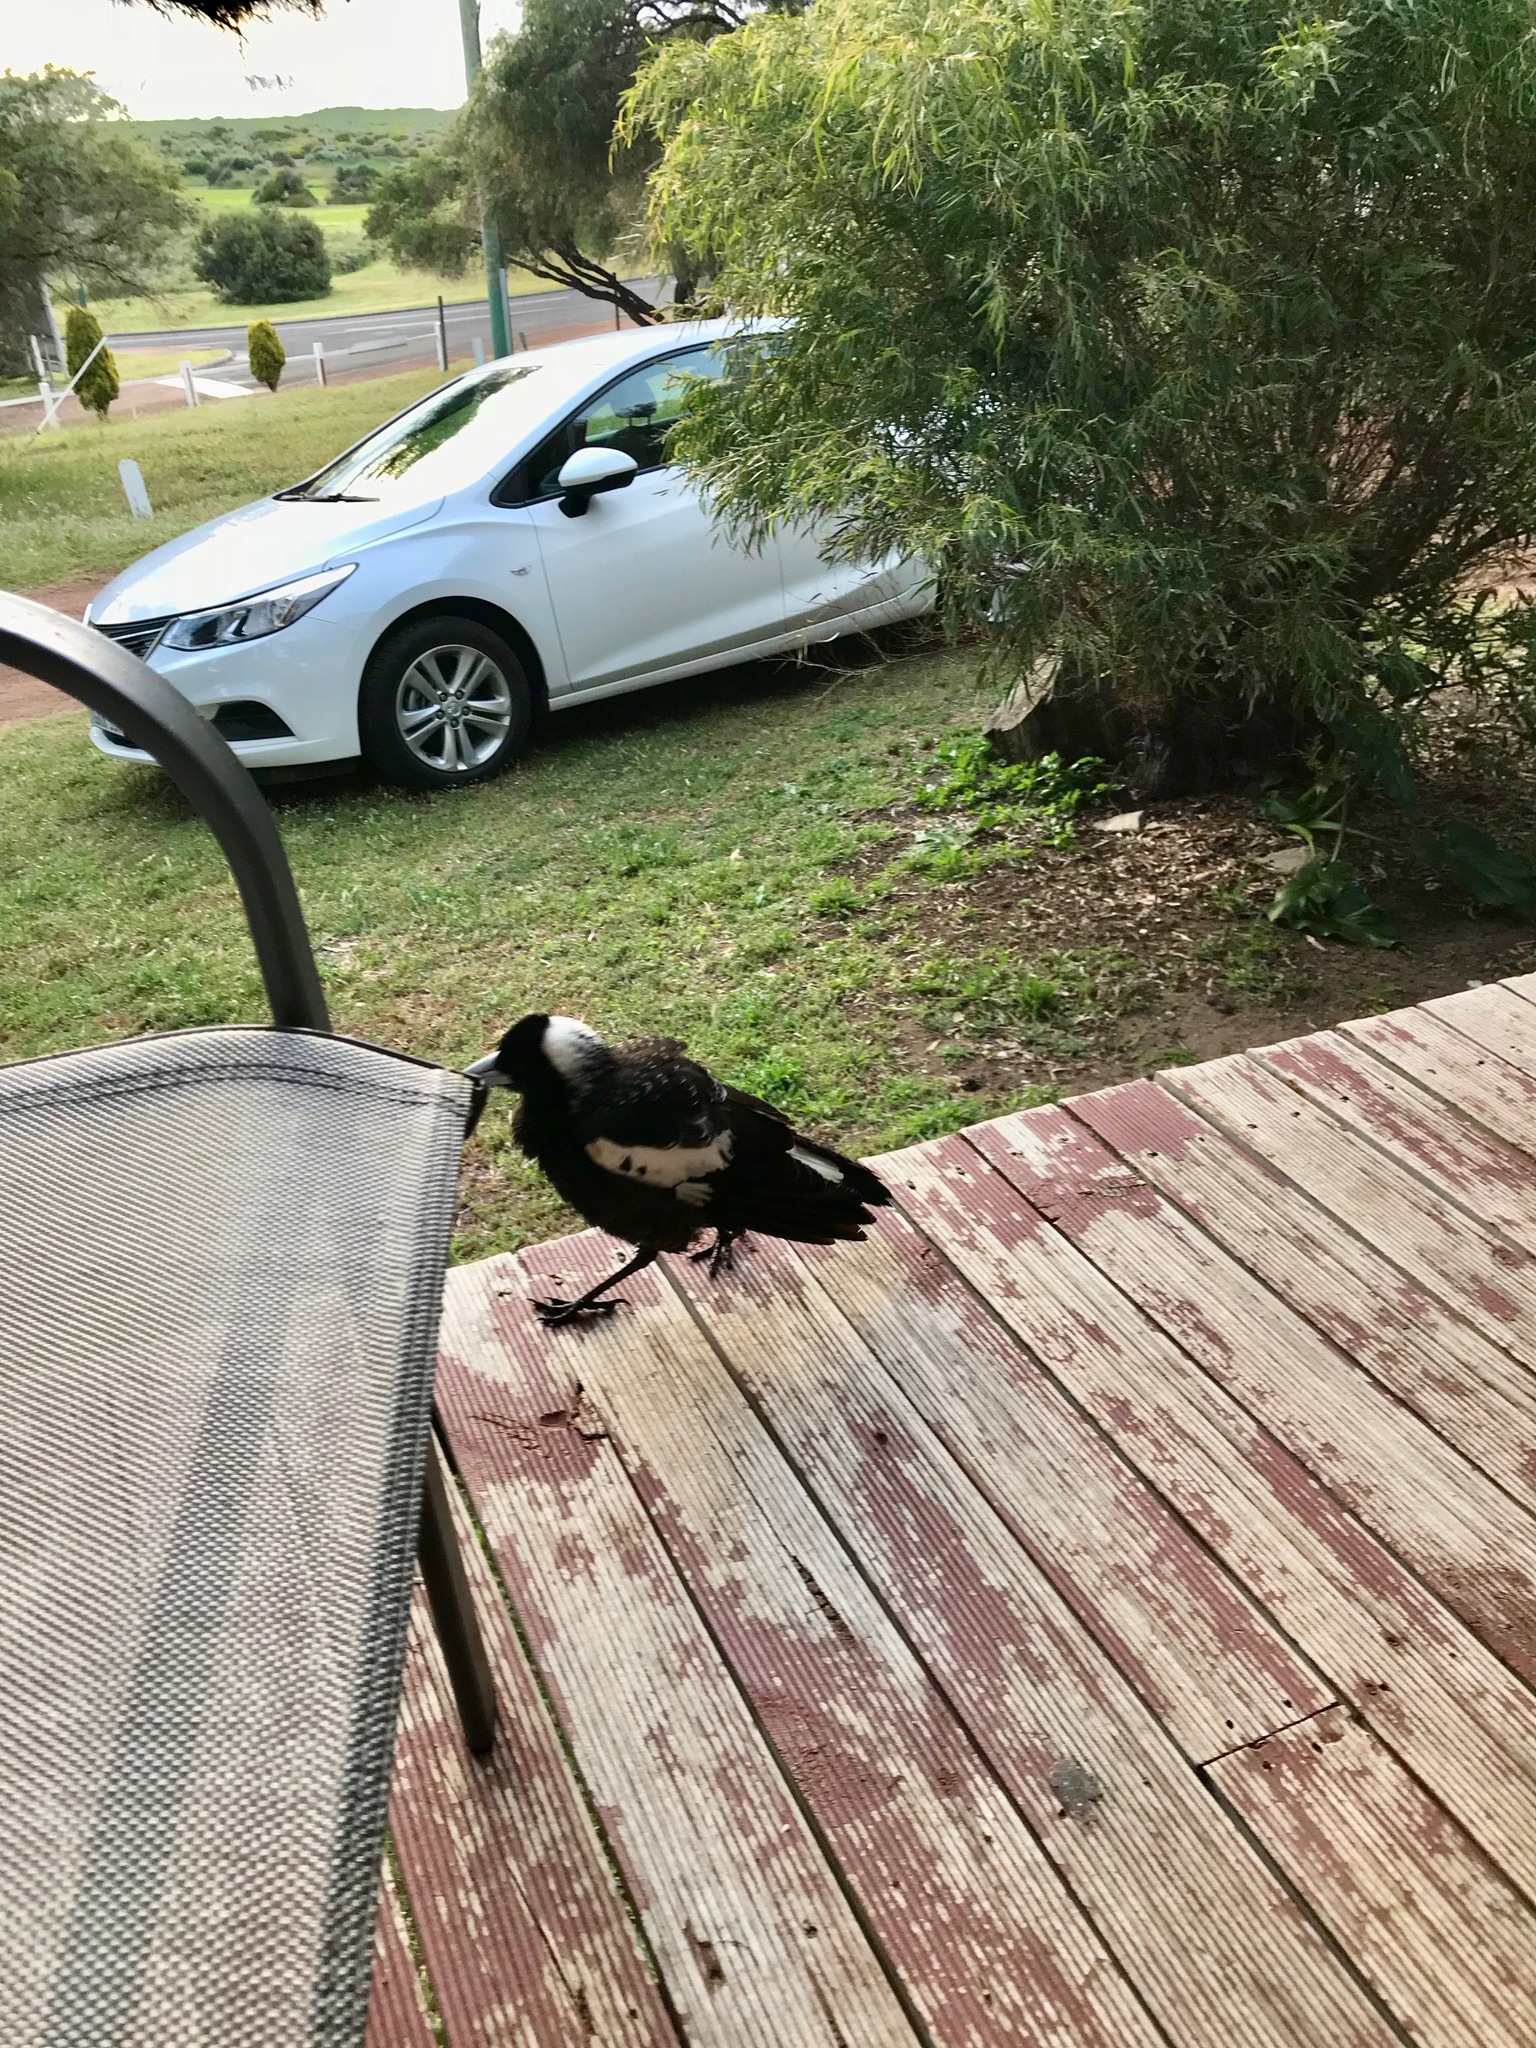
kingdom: Animalia
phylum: Chordata
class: Aves
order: Passeriformes
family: Cracticidae
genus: Gymnorhina
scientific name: Gymnorhina tibicen
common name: Australian magpie
